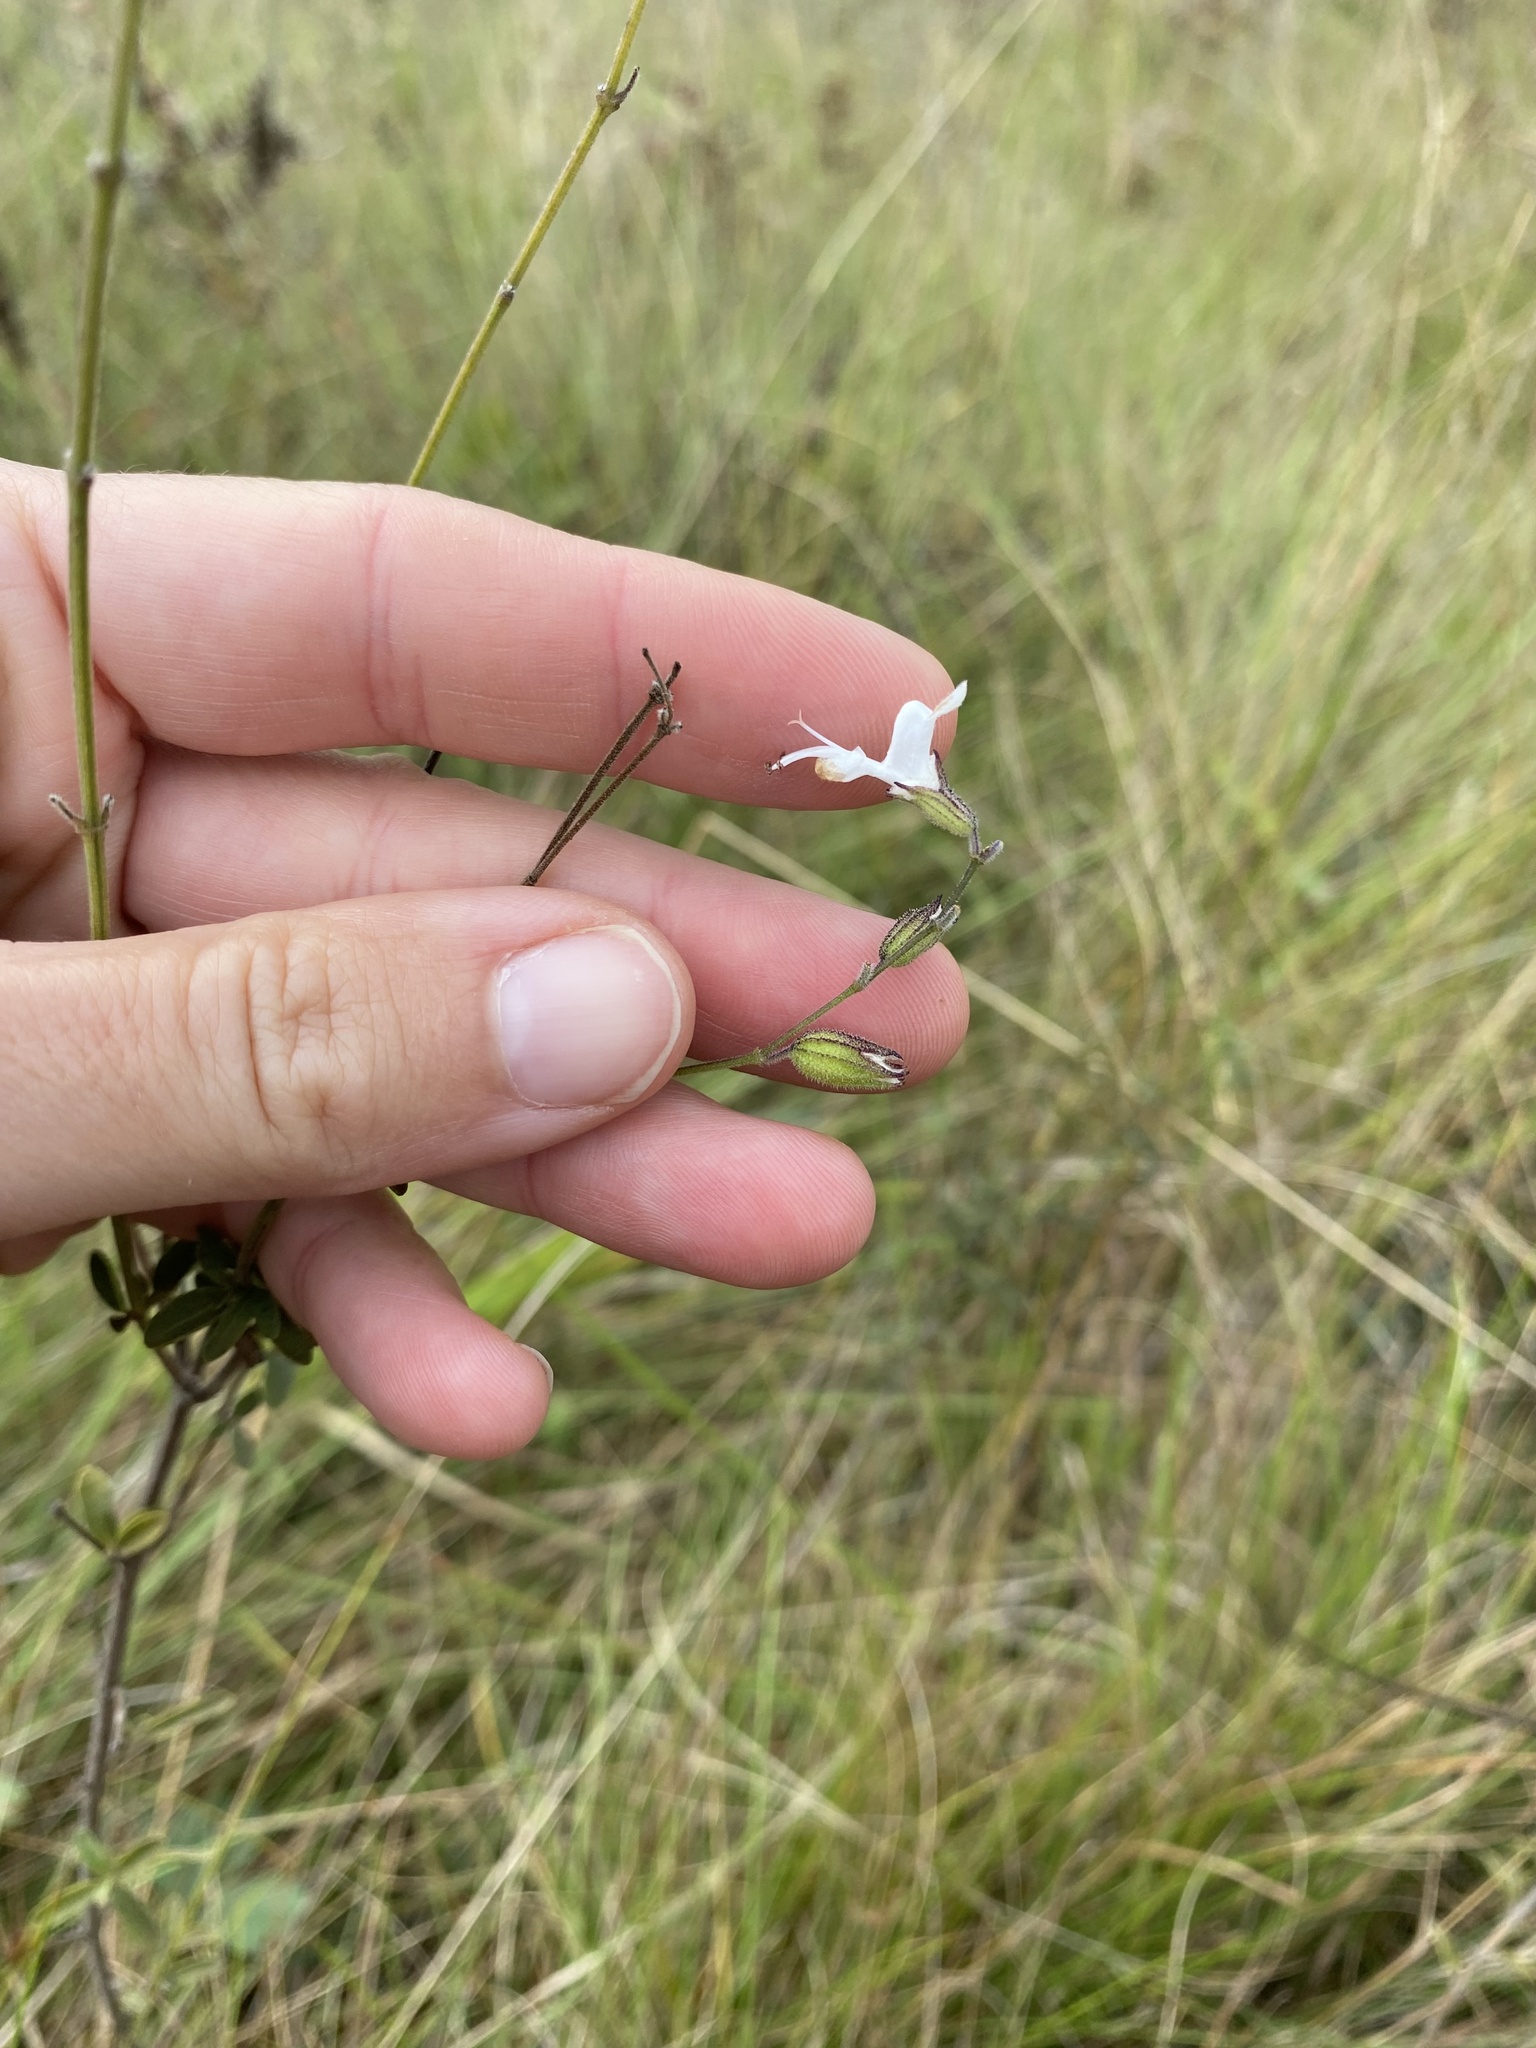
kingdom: Plantae
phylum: Tracheophyta
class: Magnoliopsida
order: Lamiales
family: Lamiaceae
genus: Syncolostemon
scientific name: Syncolostemon parviflorus
